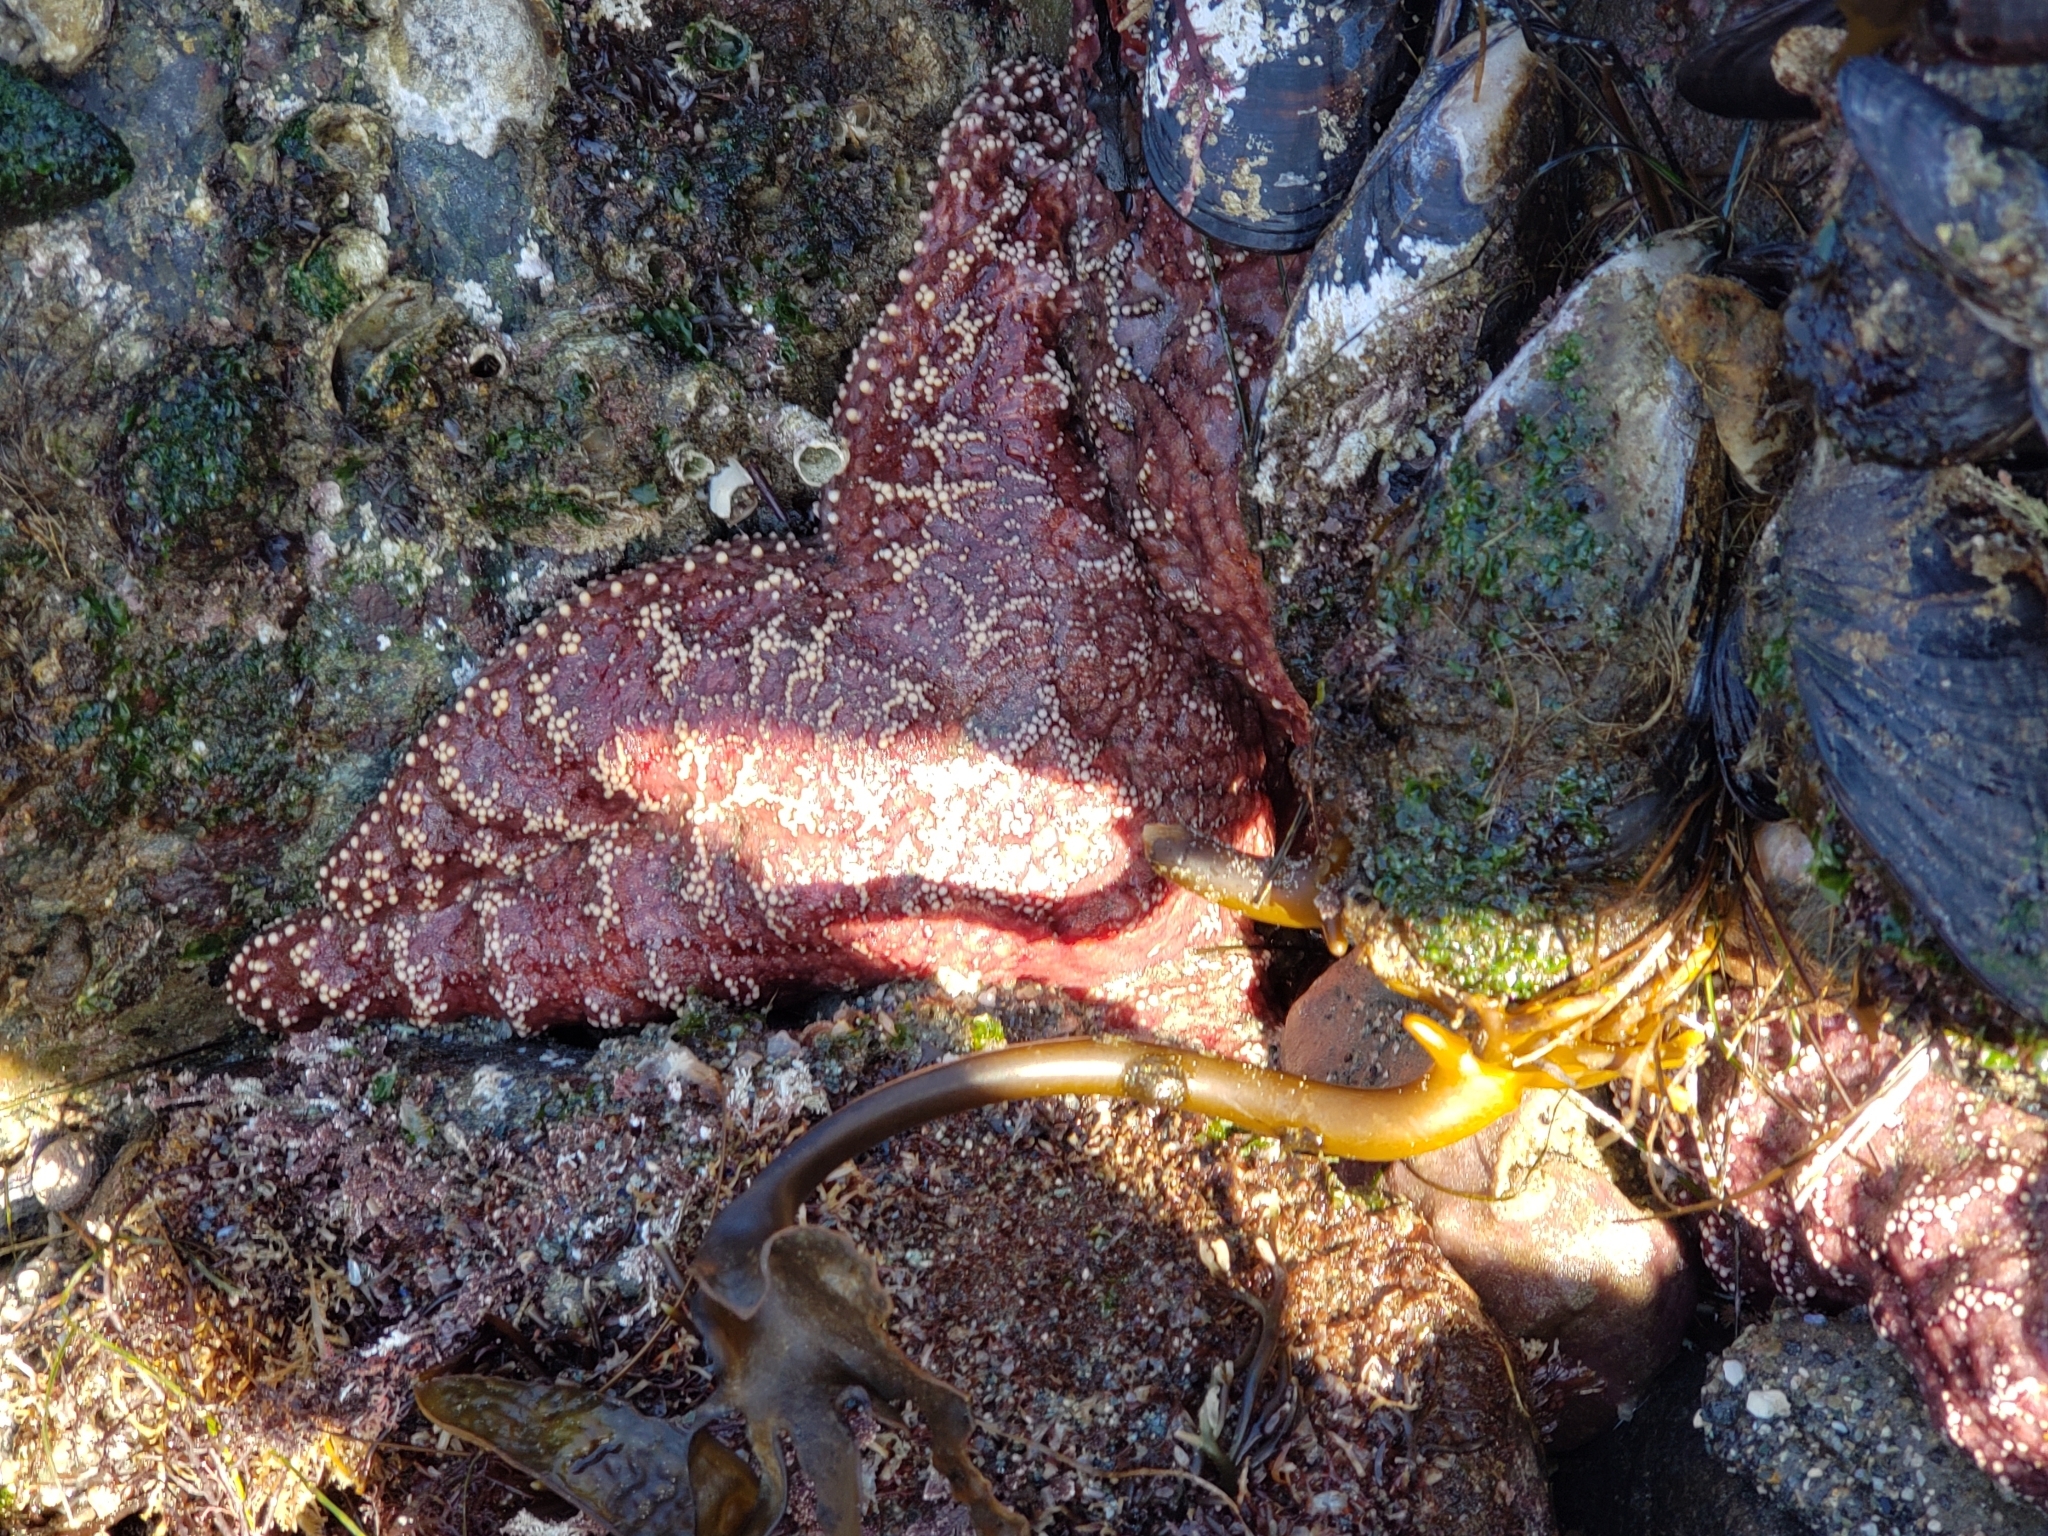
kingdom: Animalia
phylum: Echinodermata
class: Asteroidea
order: Forcipulatida
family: Asteriidae
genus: Pisaster
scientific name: Pisaster ochraceus
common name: Ochre stars
